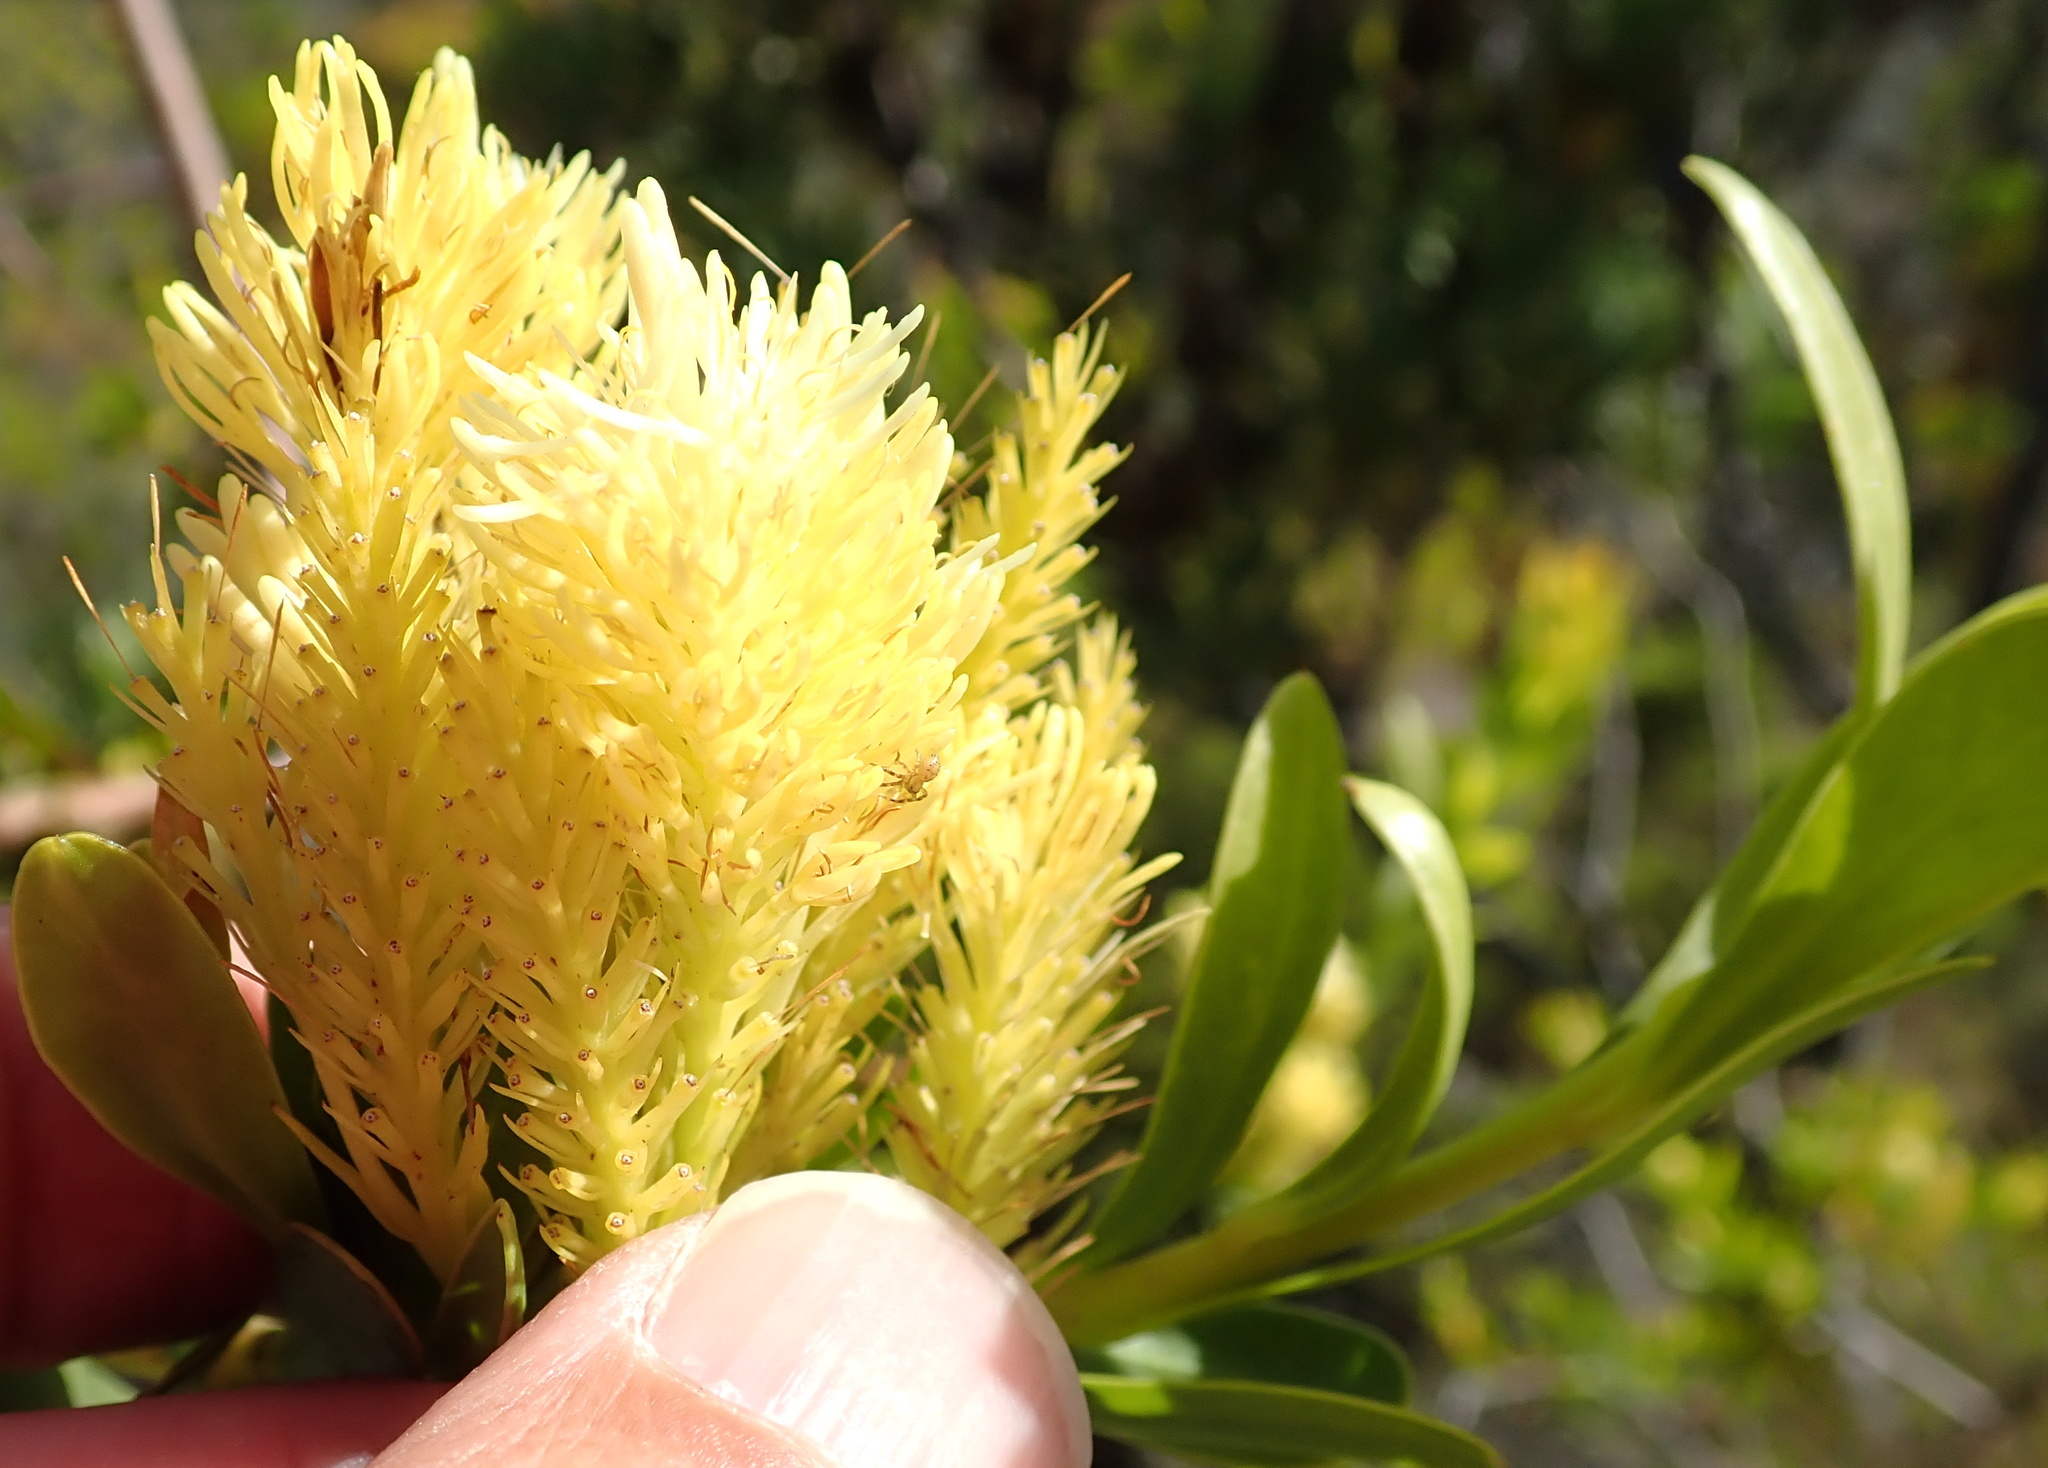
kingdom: Plantae
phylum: Tracheophyta
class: Magnoliopsida
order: Proteales
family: Proteaceae
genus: Aulax
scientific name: Aulax umbellata
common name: Broad-leaf featherbush
